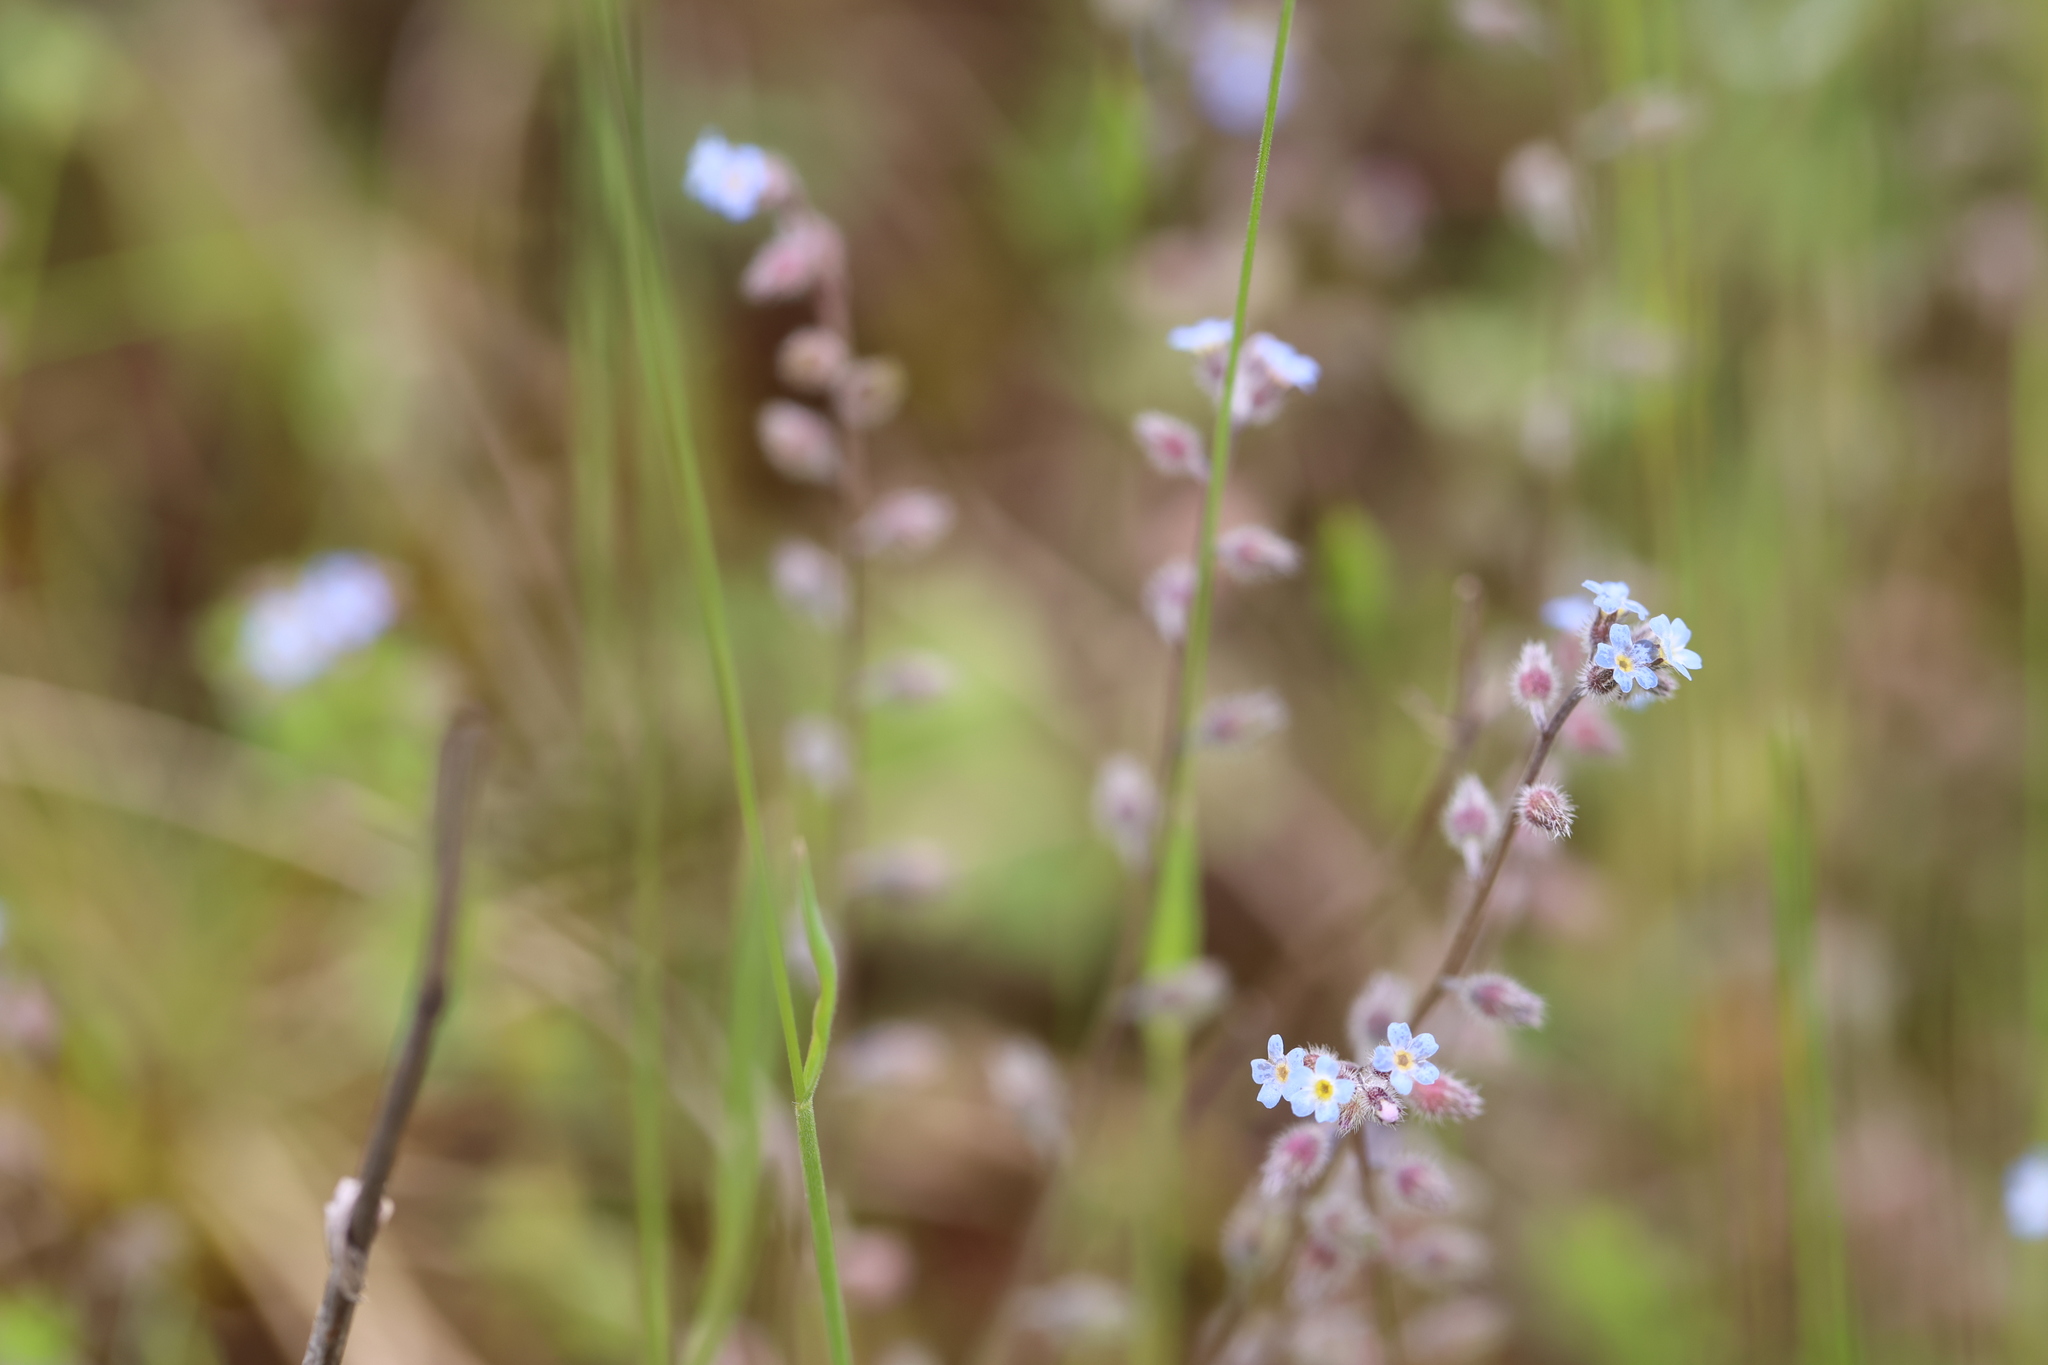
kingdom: Plantae
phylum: Tracheophyta
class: Magnoliopsida
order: Boraginales
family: Boraginaceae
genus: Myosotis
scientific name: Myosotis arvensis
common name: Field forget-me-not
